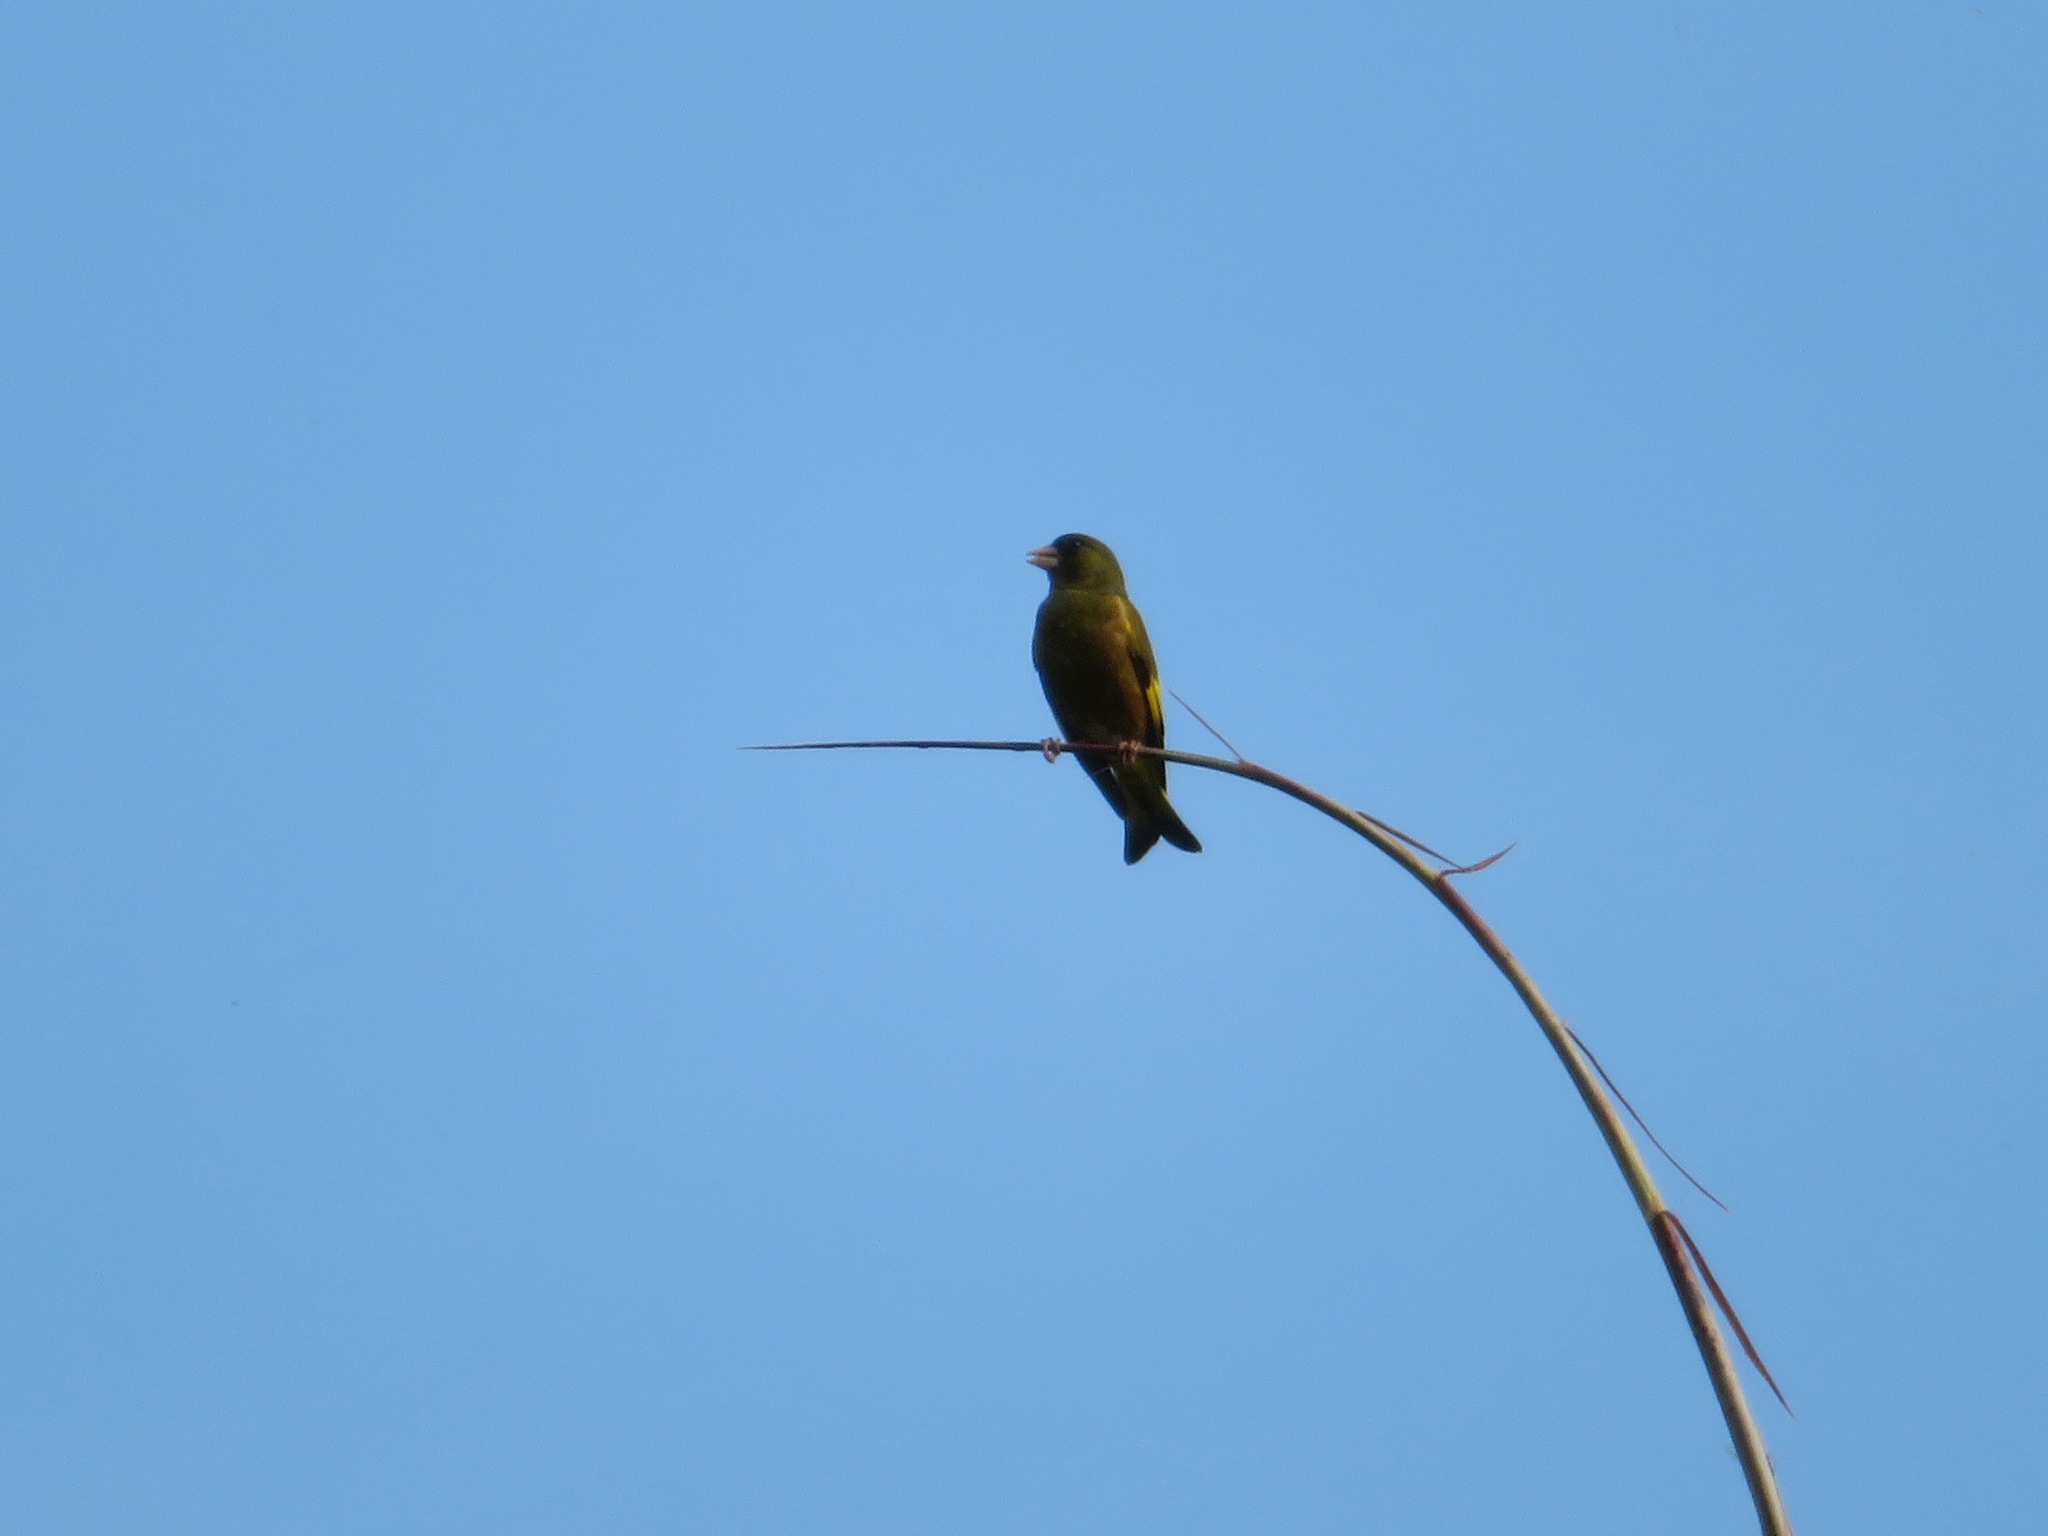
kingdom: Plantae
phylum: Tracheophyta
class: Liliopsida
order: Poales
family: Poaceae
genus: Chloris
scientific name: Chloris sinica
